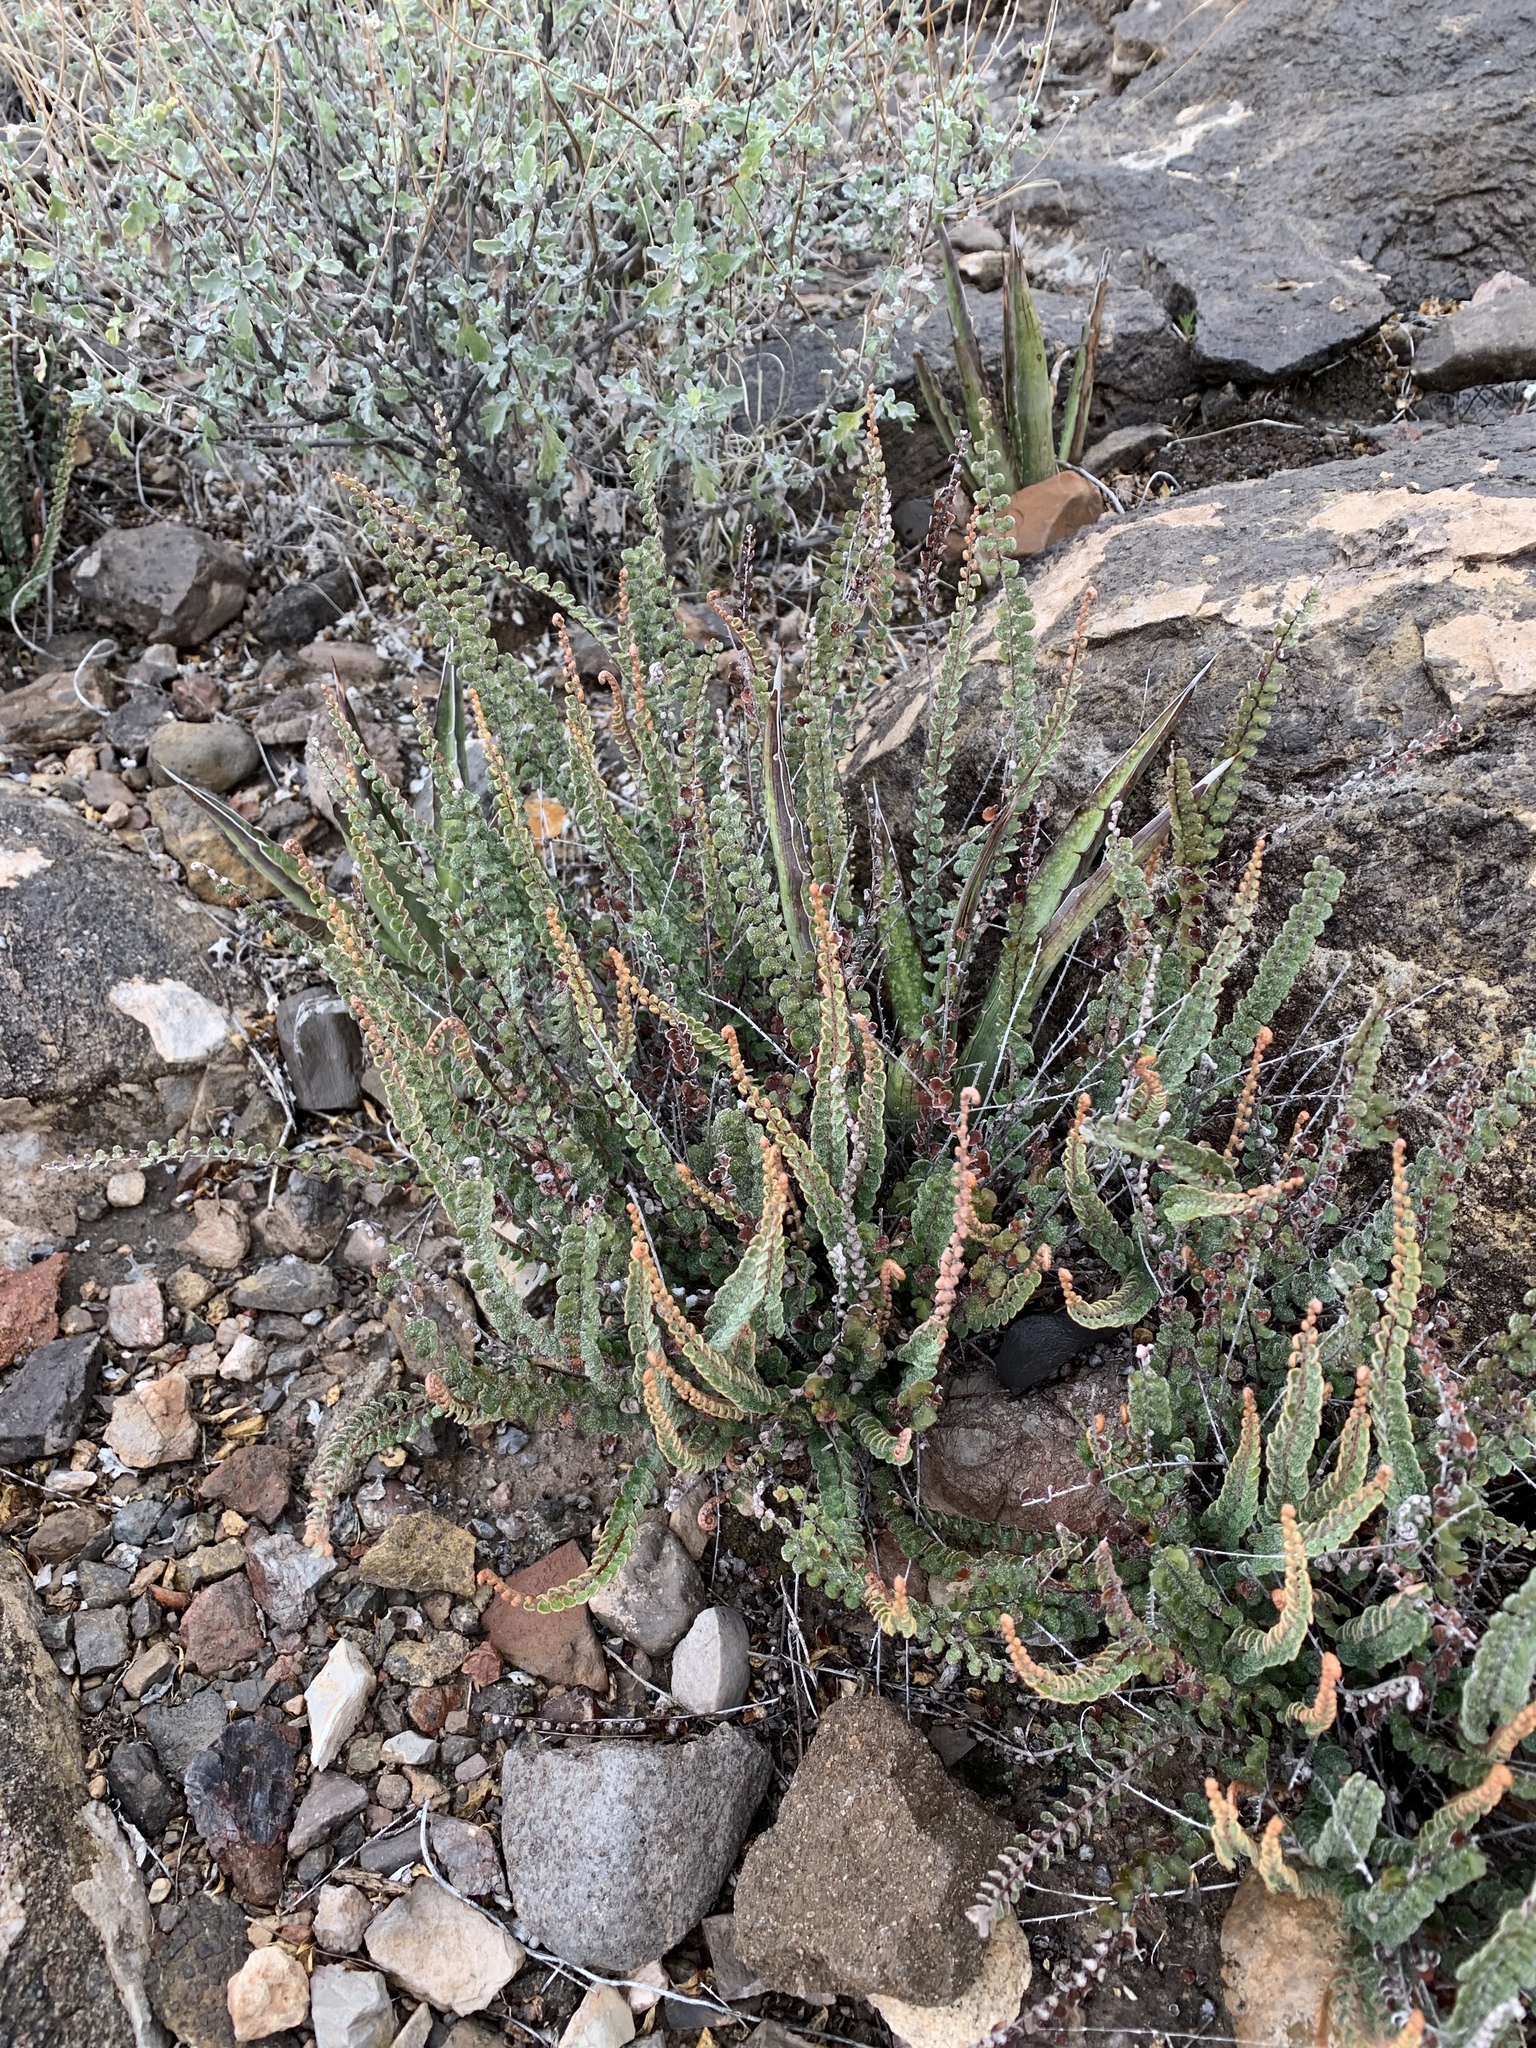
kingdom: Plantae
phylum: Tracheophyta
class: Polypodiopsida
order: Polypodiales
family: Pteridaceae
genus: Astrolepis
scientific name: Astrolepis cochisensis
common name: Scaly cloak fern
